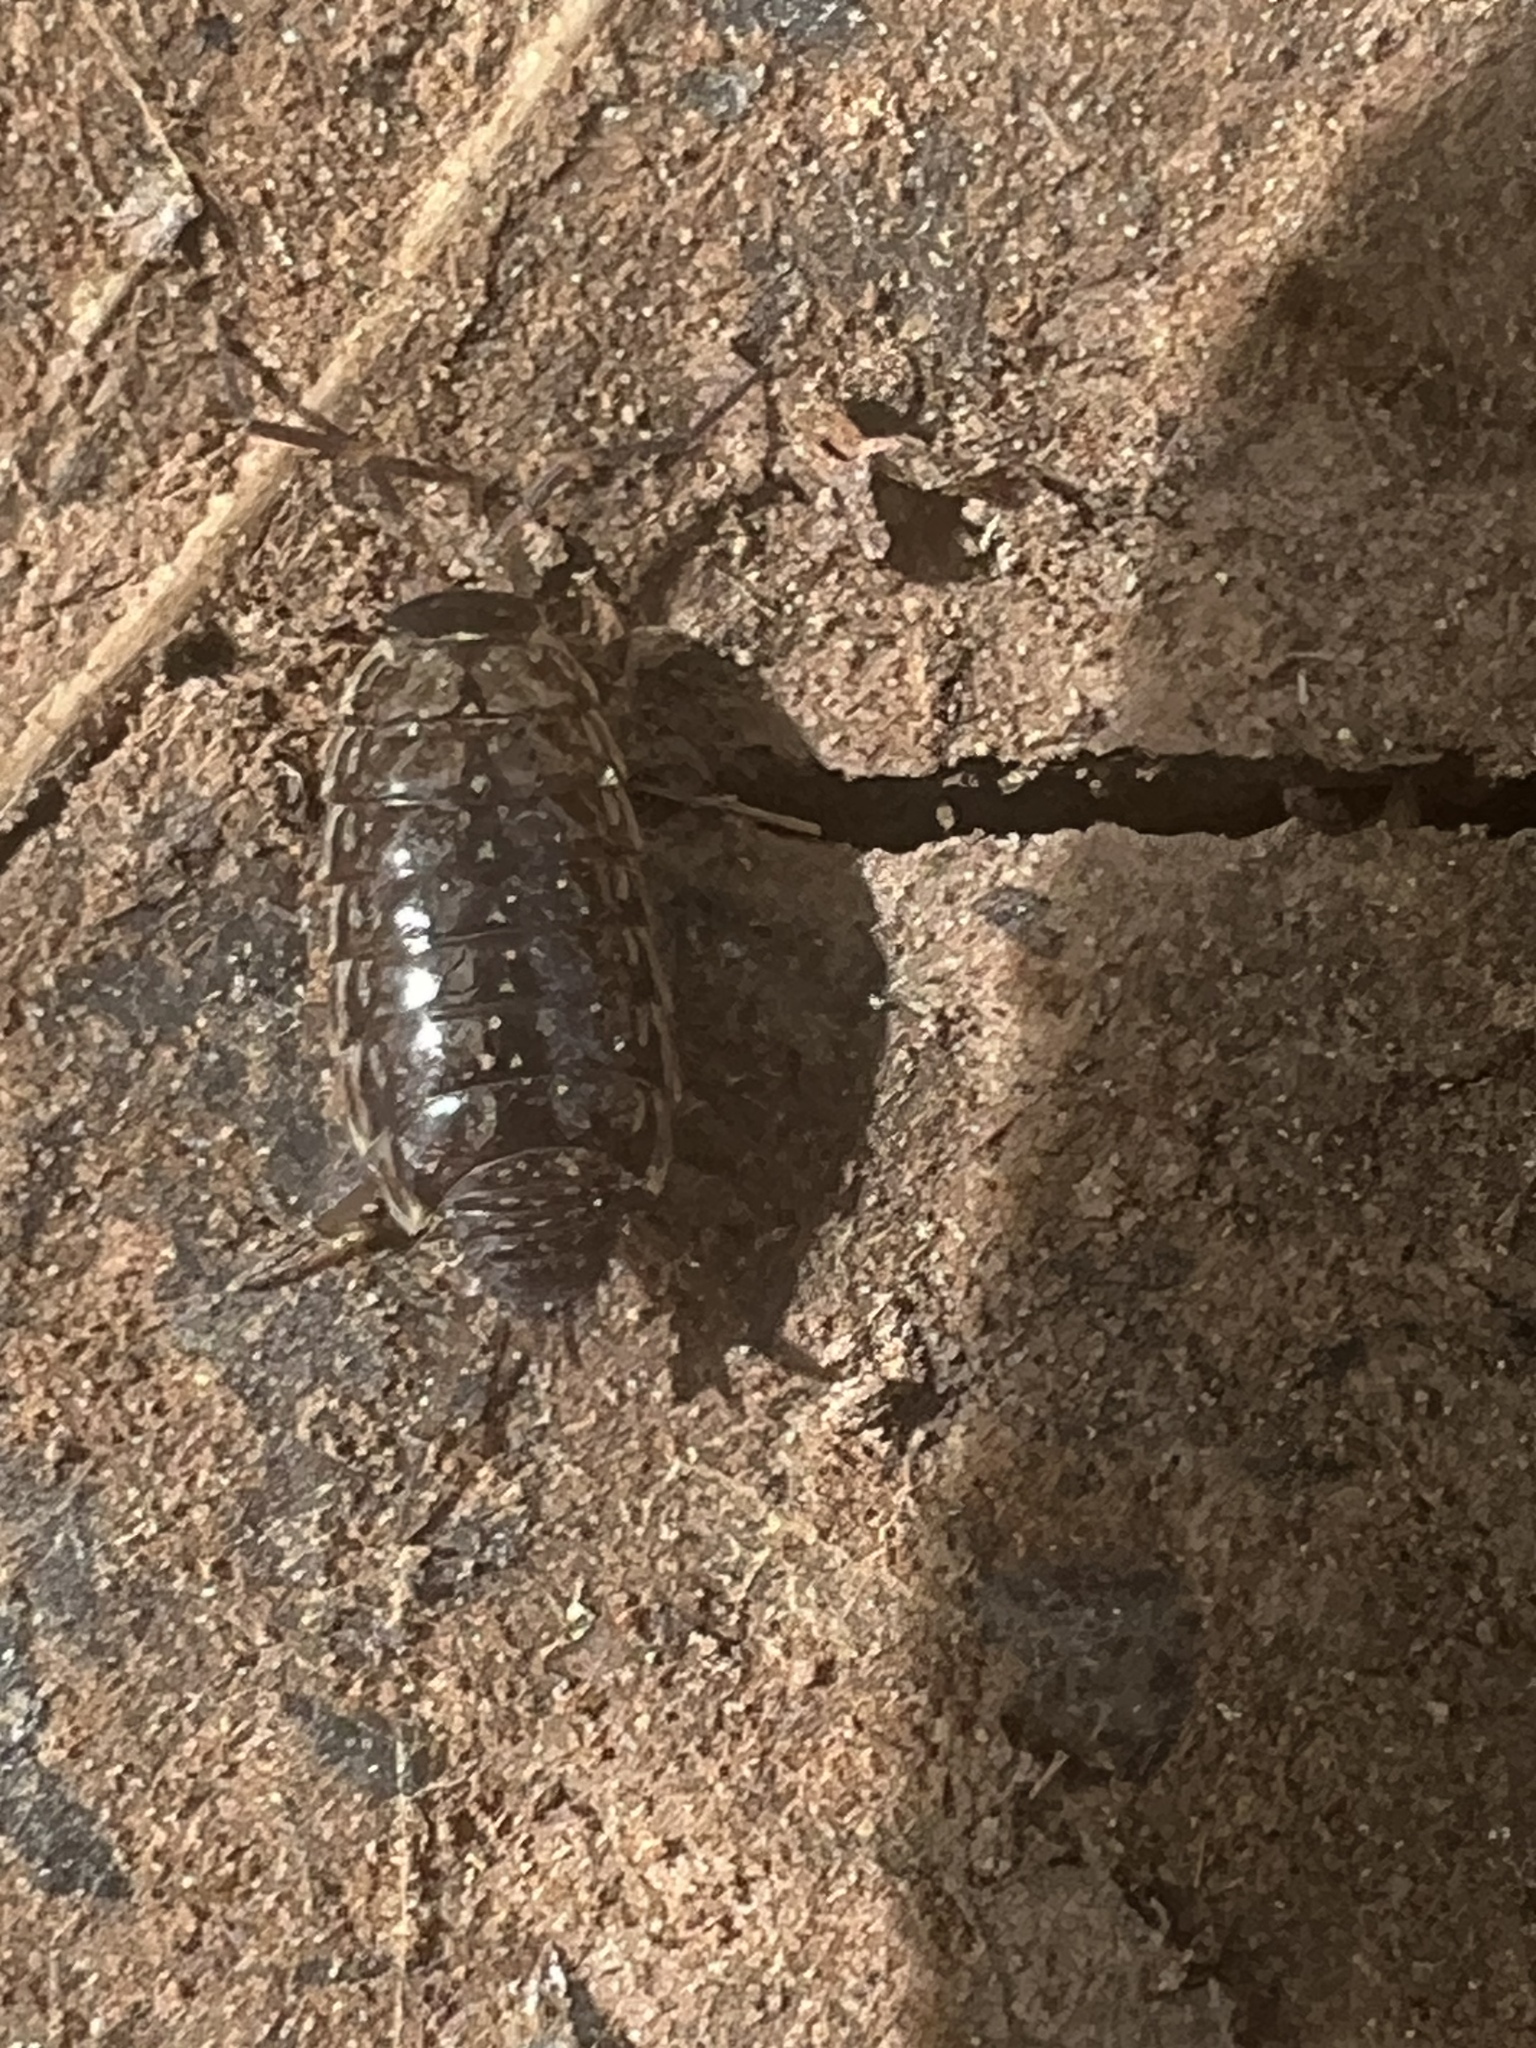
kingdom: Animalia
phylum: Arthropoda
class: Malacostraca
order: Isopoda
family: Philosciidae
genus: Philoscia
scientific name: Philoscia muscorum
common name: Common striped woodlouse
